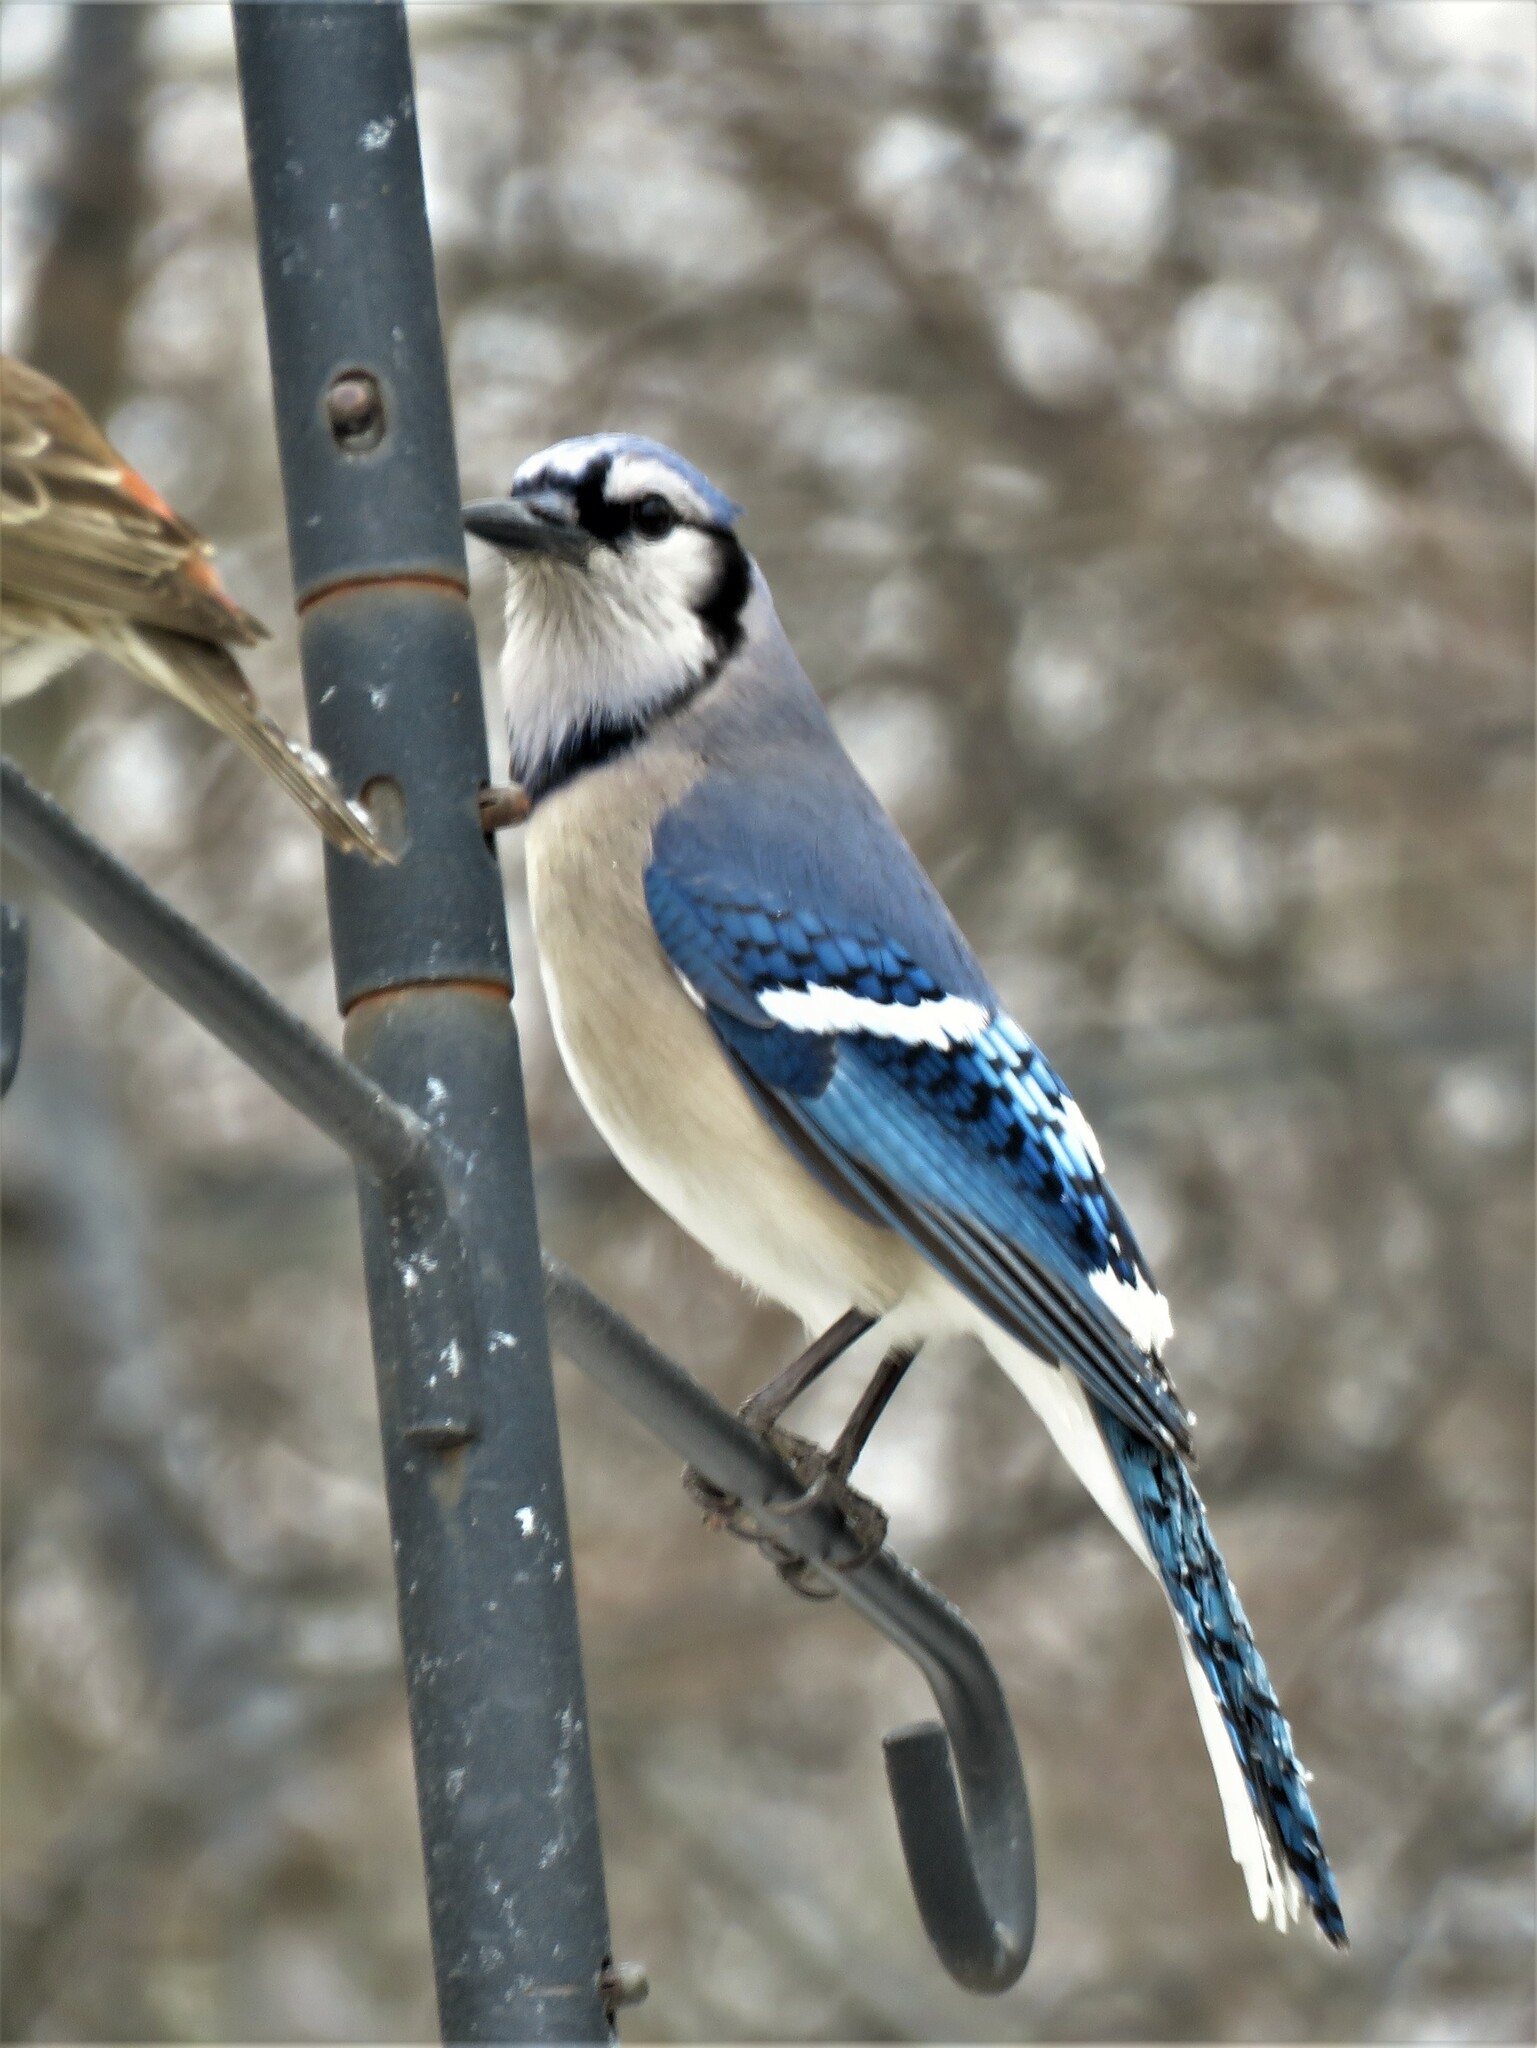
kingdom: Animalia
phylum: Chordata
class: Aves
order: Passeriformes
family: Corvidae
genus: Cyanocitta
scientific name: Cyanocitta cristata
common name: Blue jay
